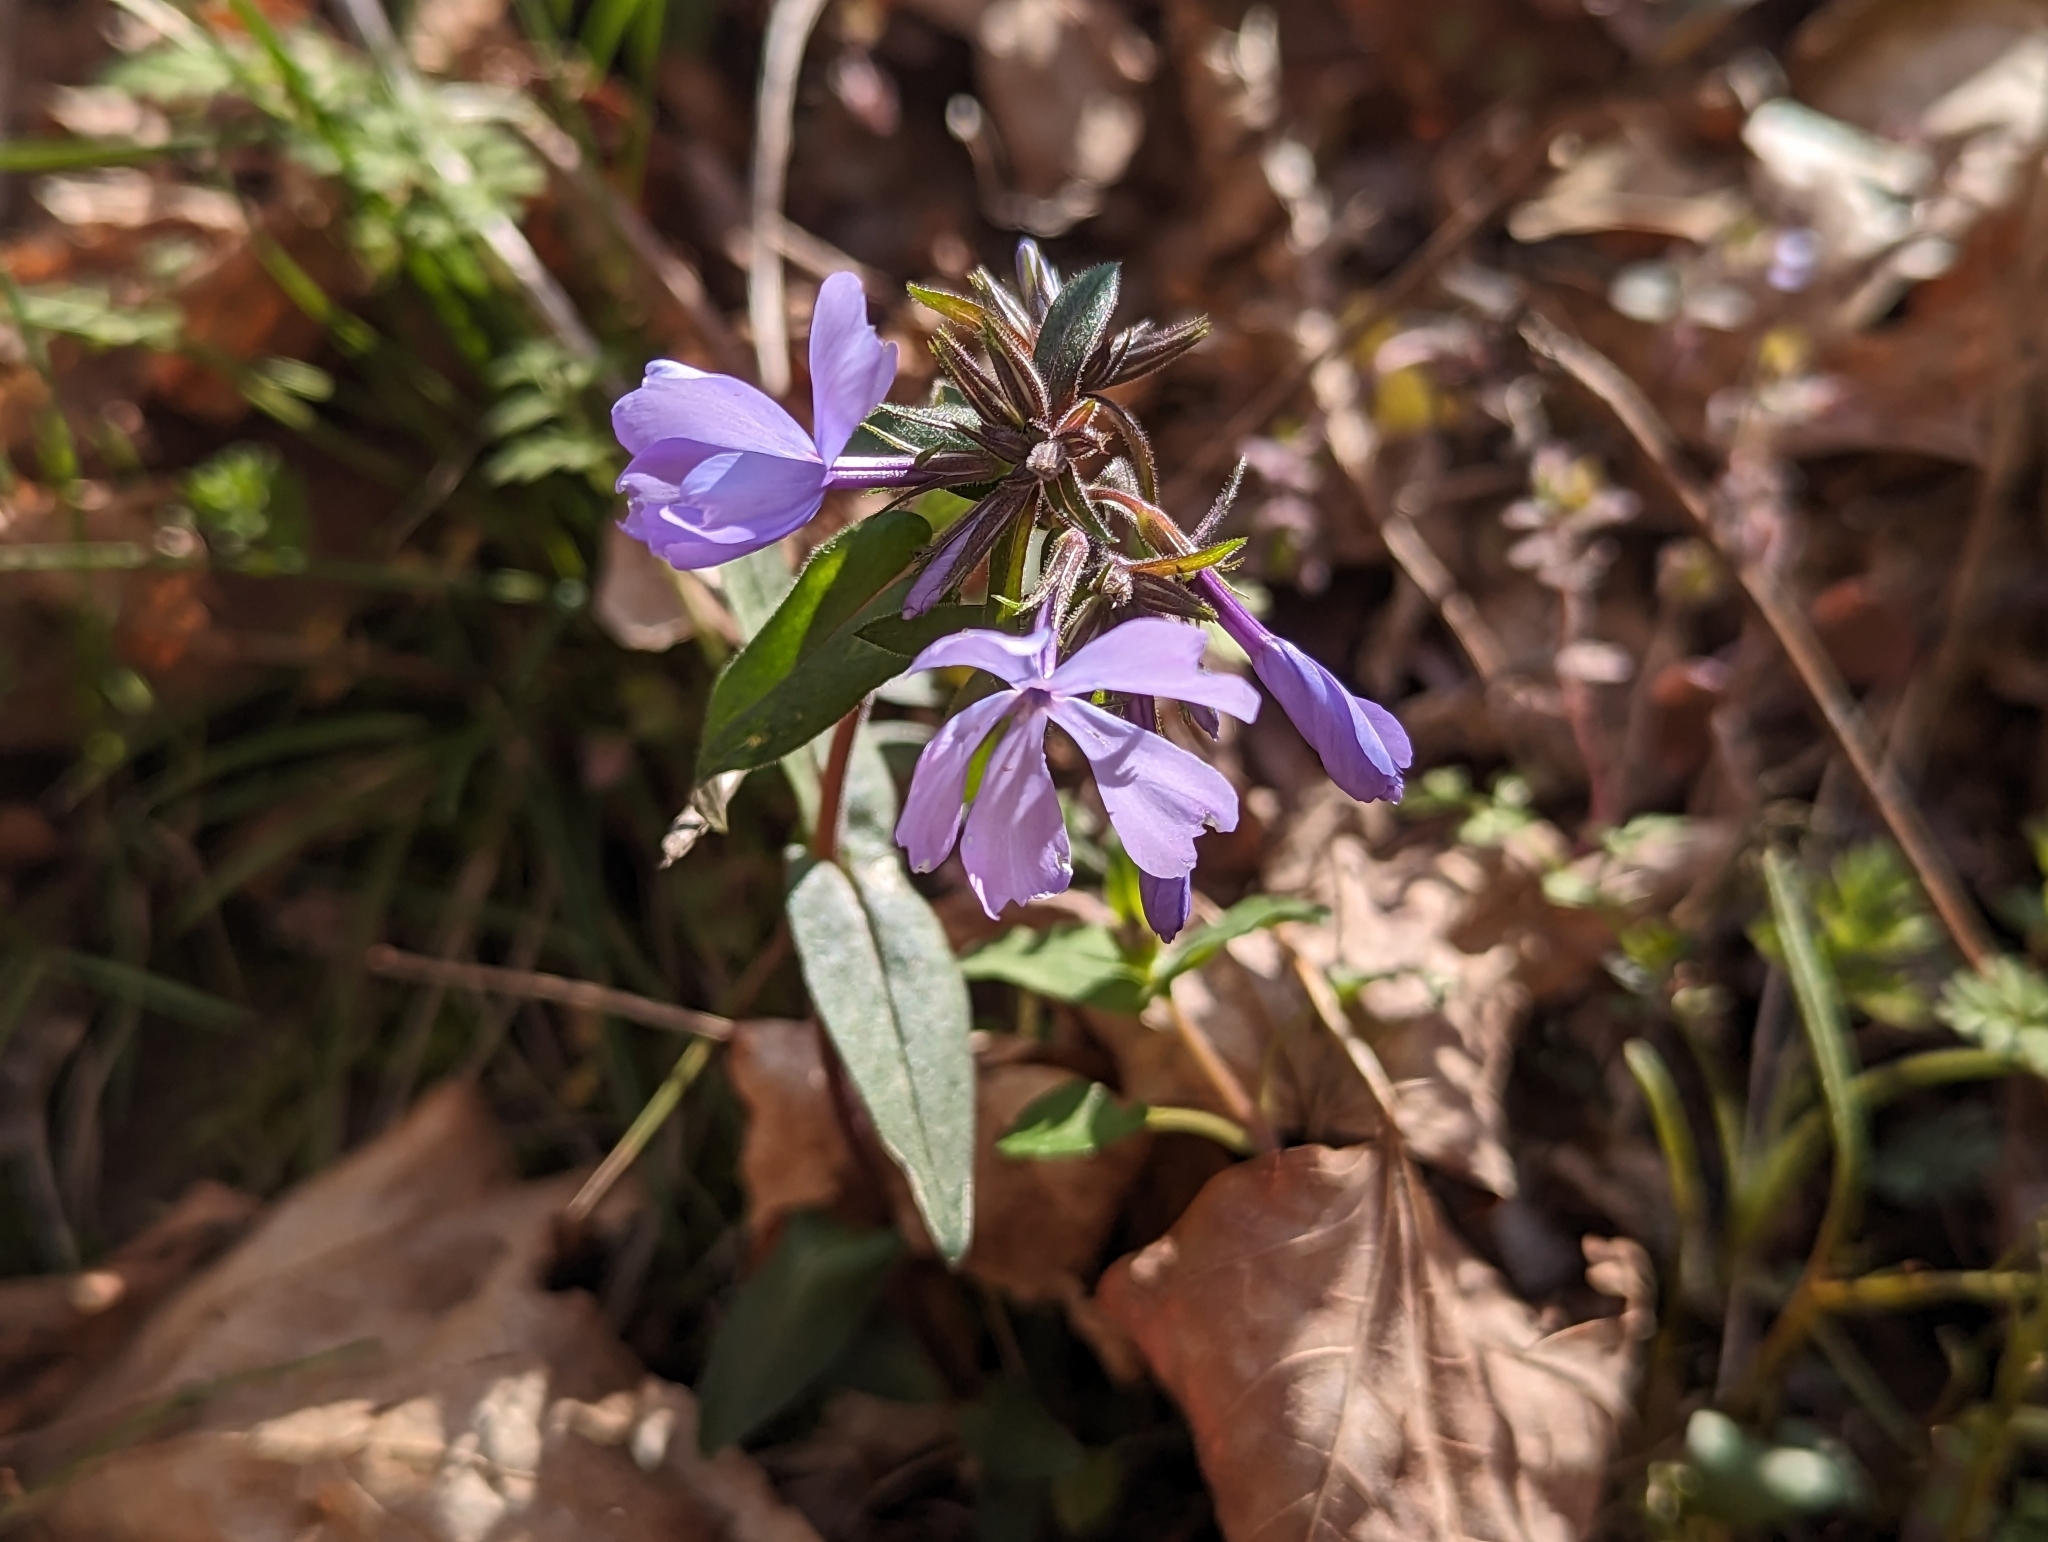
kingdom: Plantae
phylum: Tracheophyta
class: Magnoliopsida
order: Ericales
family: Polemoniaceae
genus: Phlox
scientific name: Phlox divaricata
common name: Blue phlox
